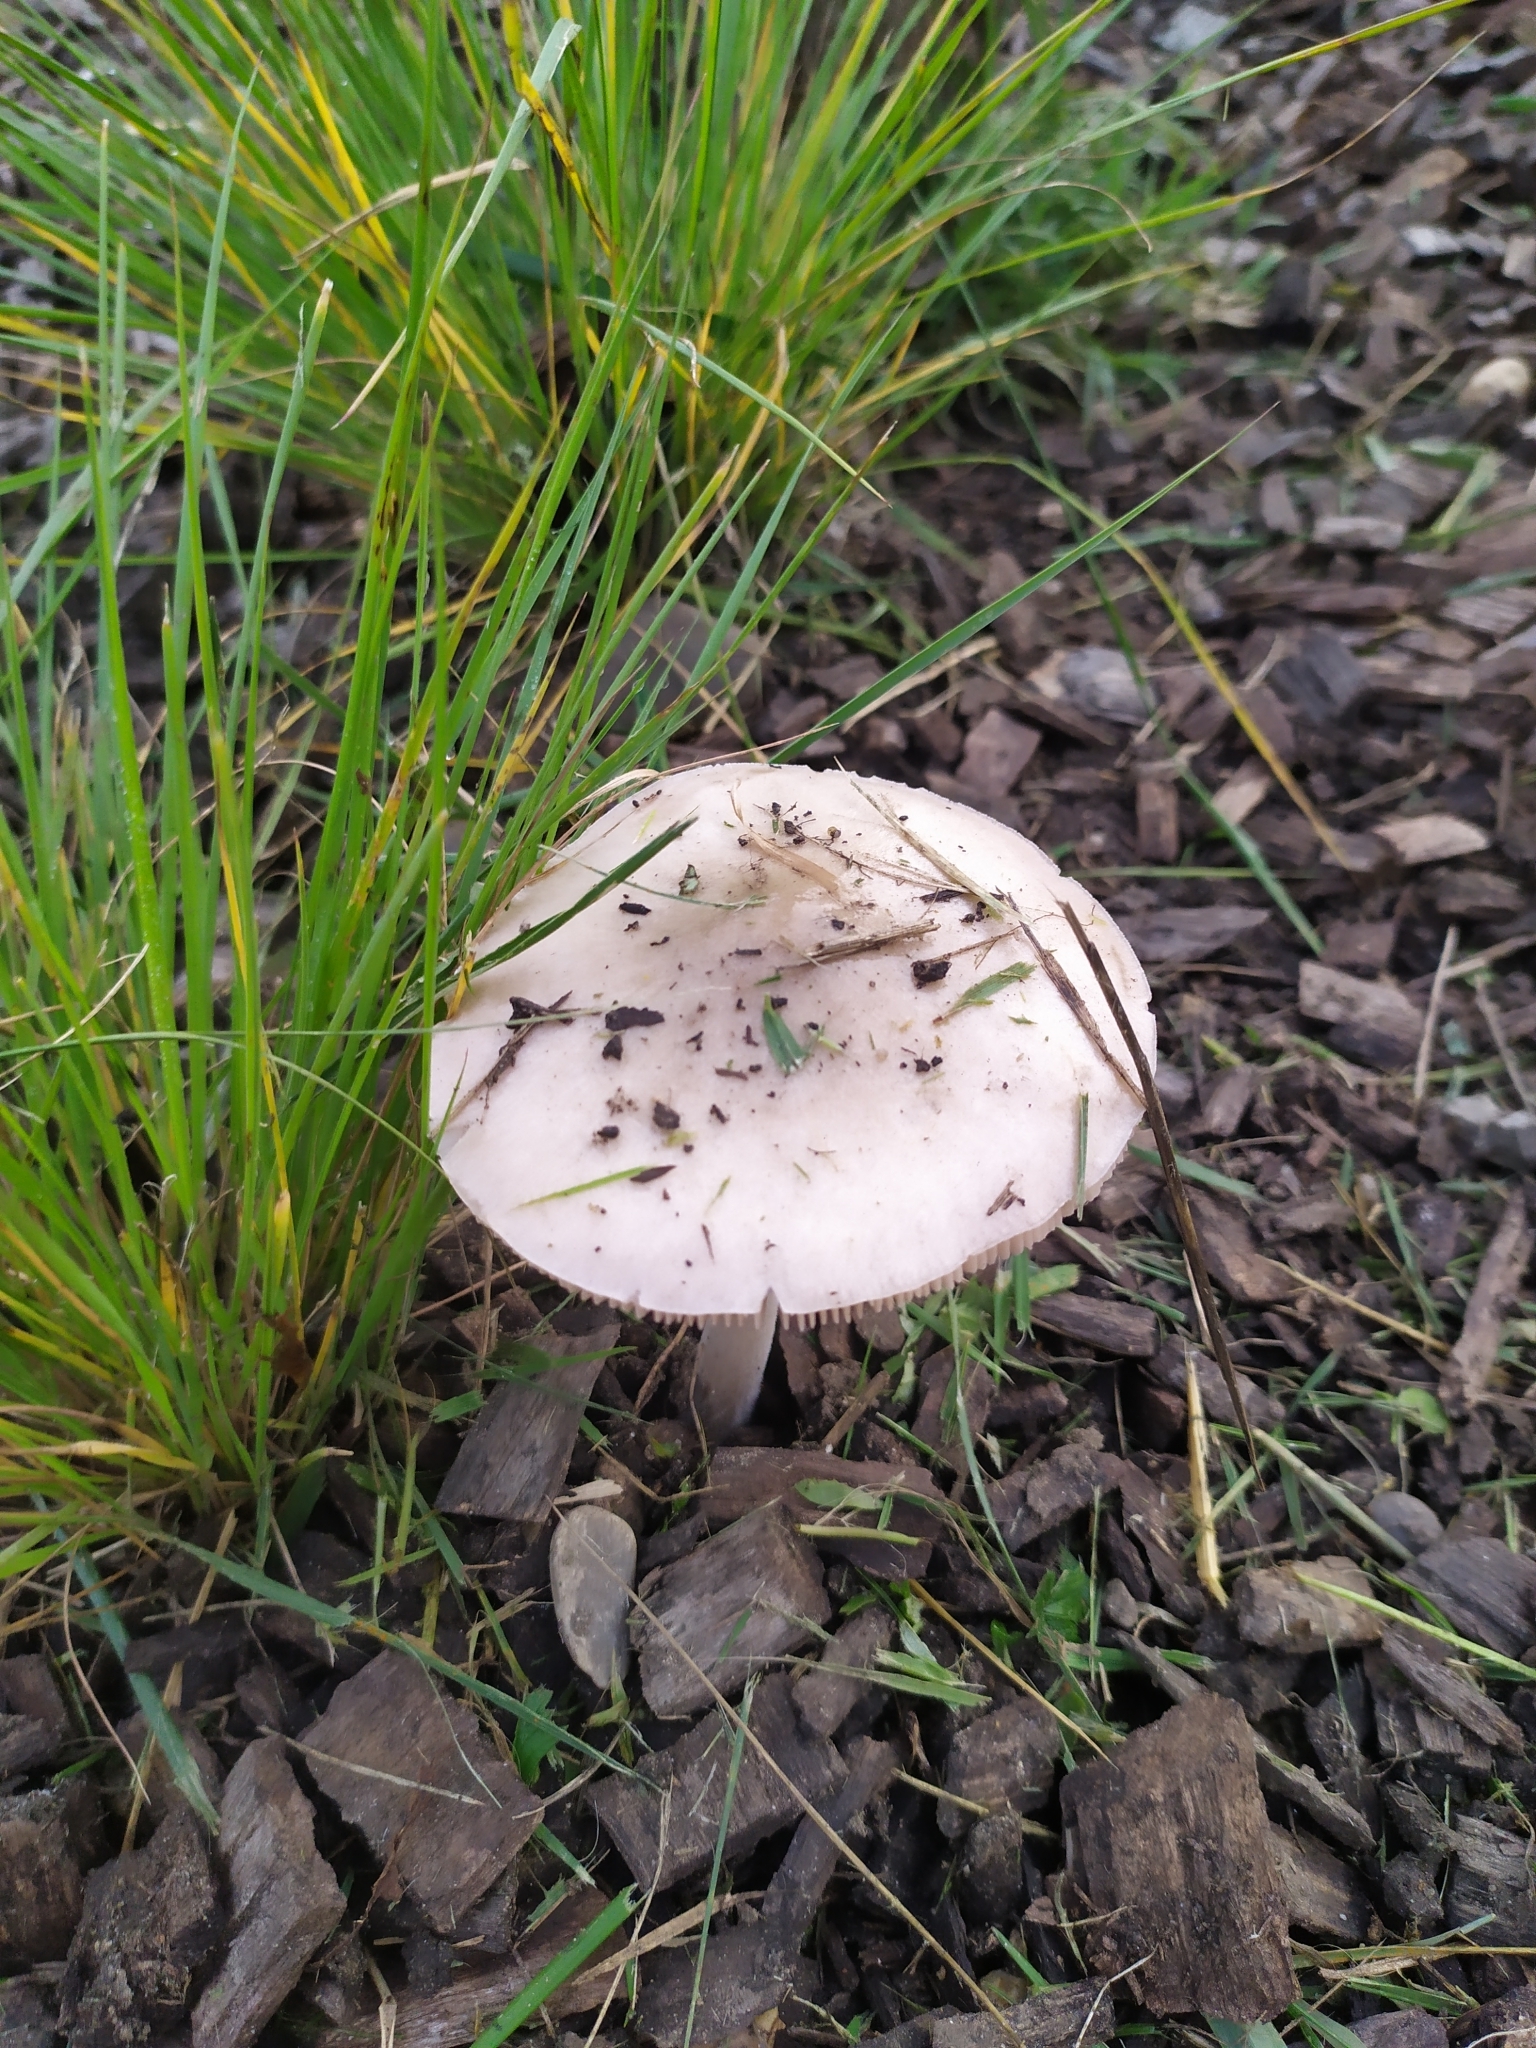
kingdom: Fungi
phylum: Basidiomycota
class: Agaricomycetes
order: Agaricales
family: Pluteaceae
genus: Volvopluteus
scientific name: Volvopluteus gloiocephalus
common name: Stubble rosegill
